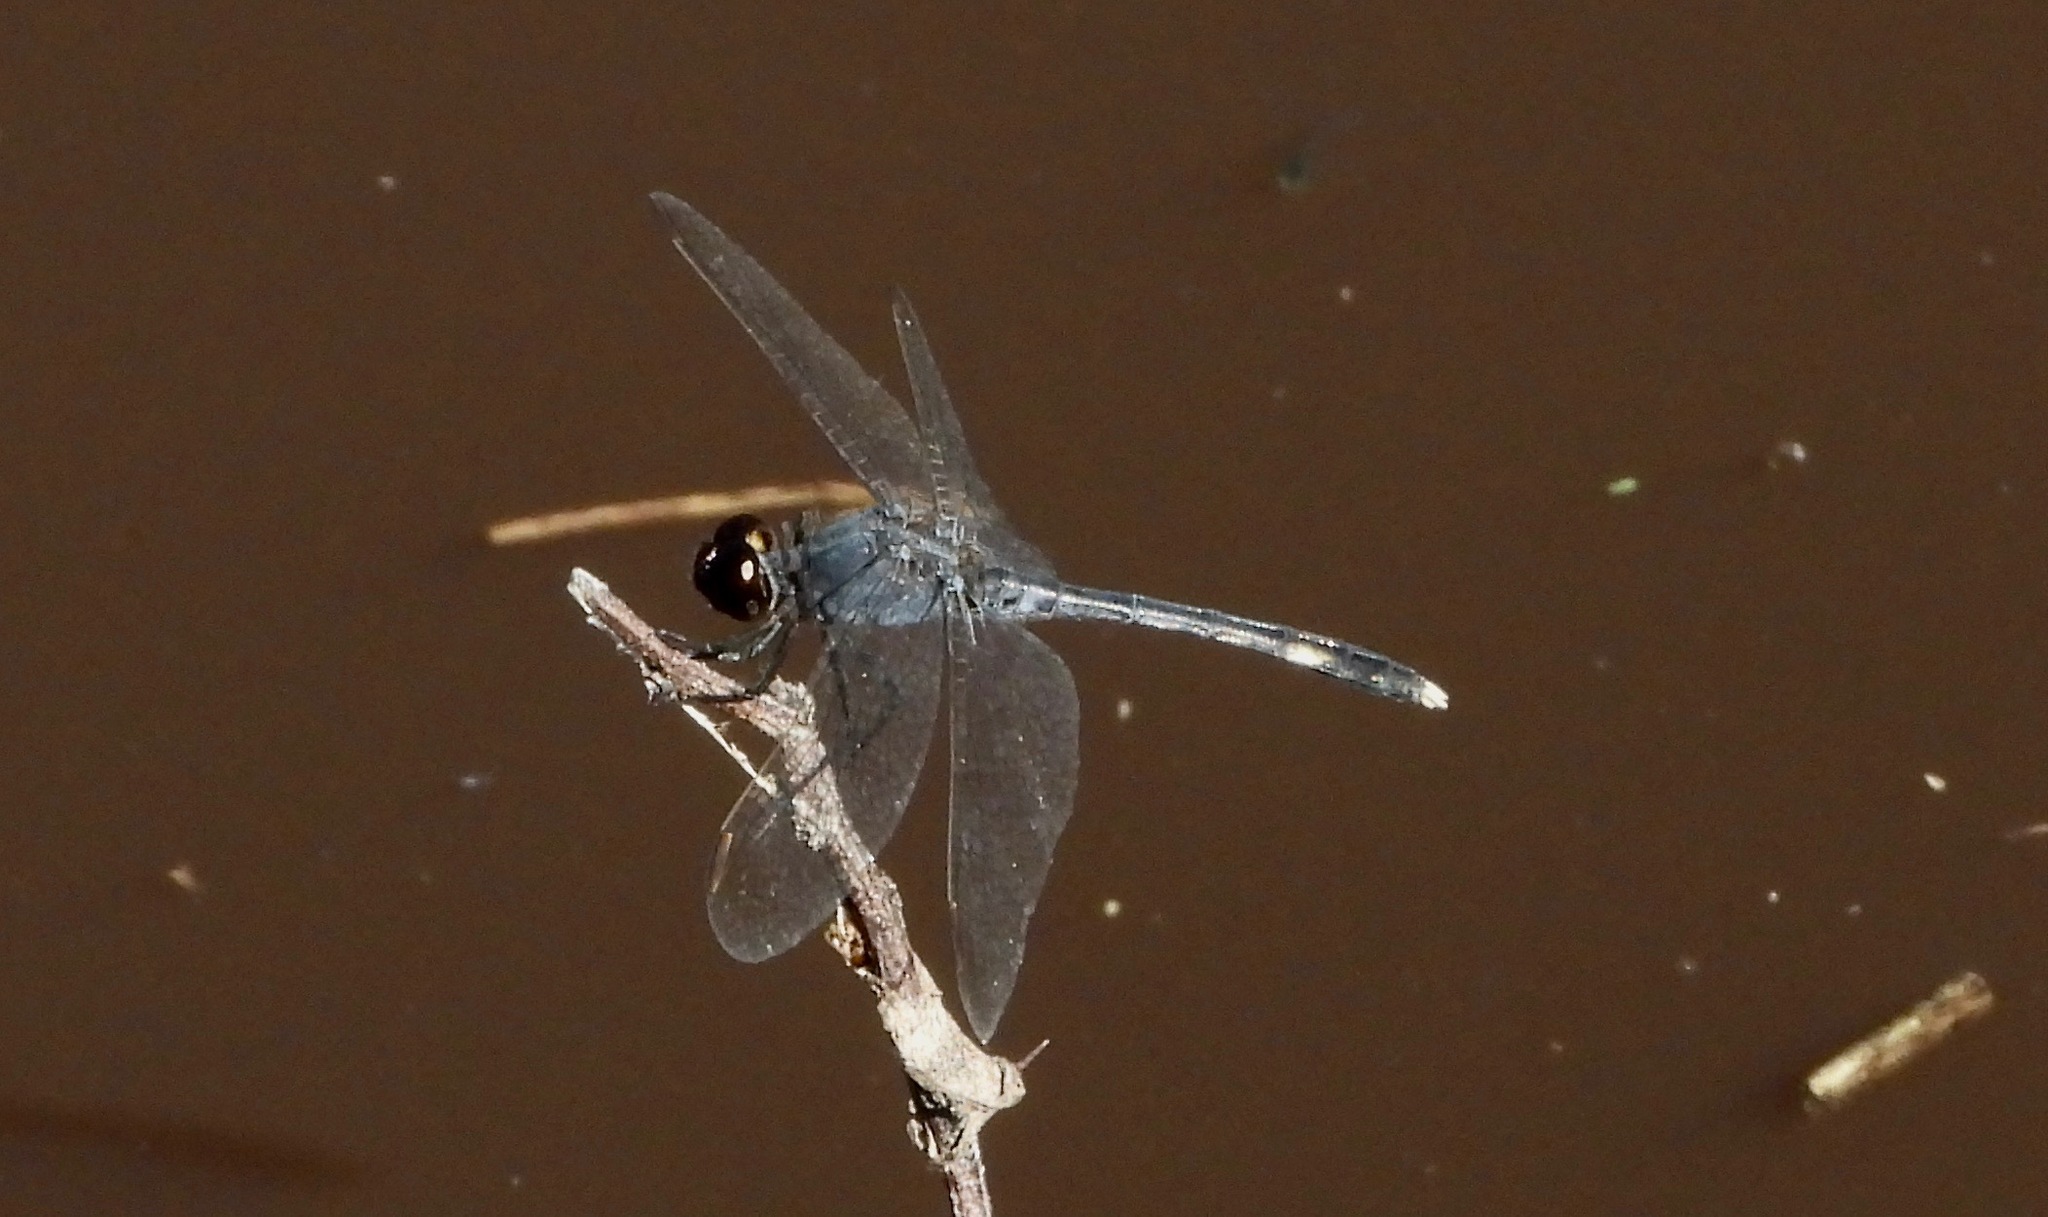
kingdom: Animalia
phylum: Arthropoda
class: Insecta
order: Odonata
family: Libellulidae
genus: Erythrodiplax
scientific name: Erythrodiplax nigricans
